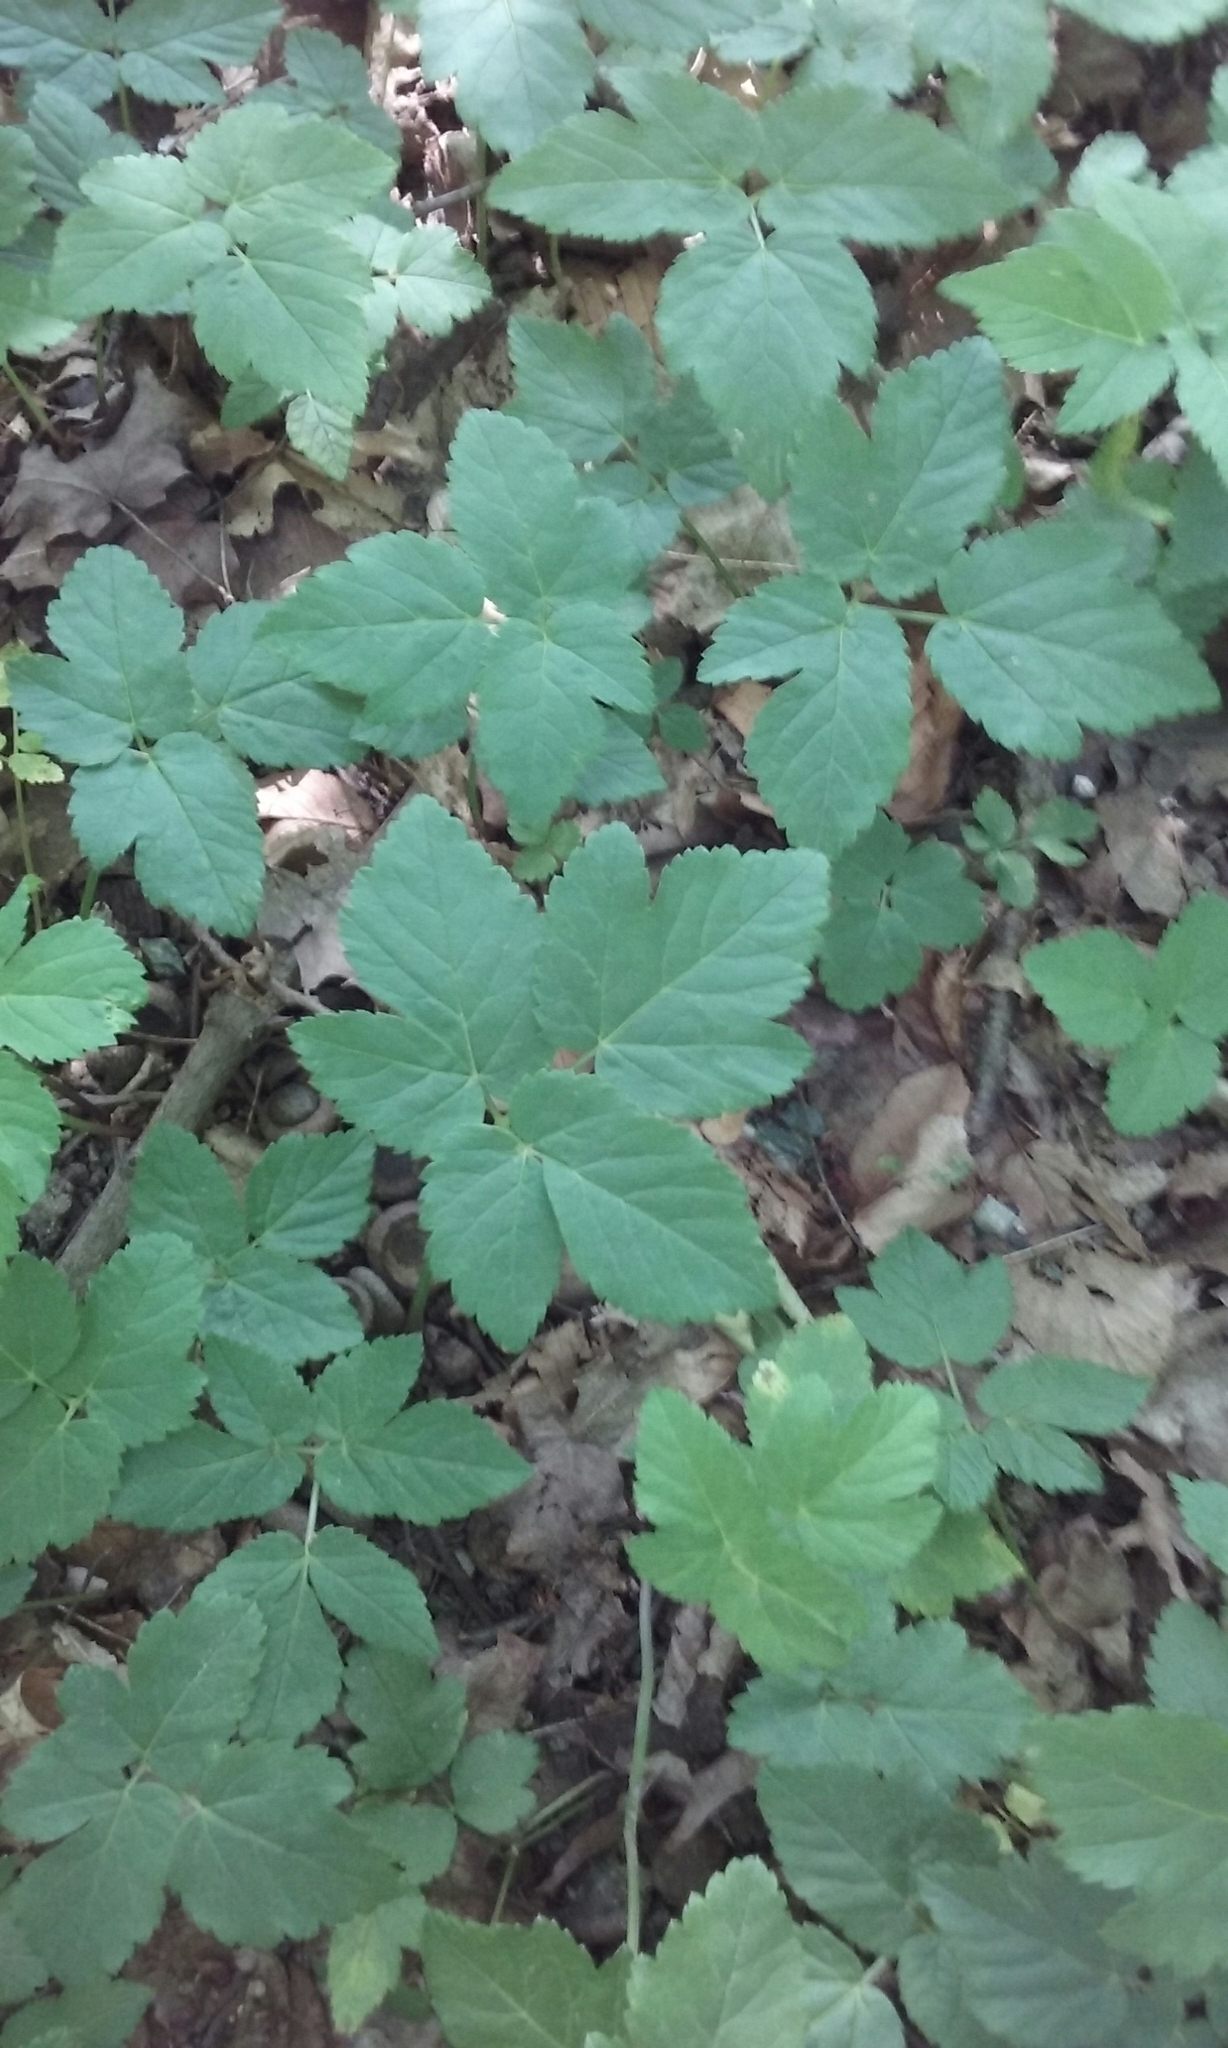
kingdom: Plantae
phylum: Tracheophyta
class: Magnoliopsida
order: Apiales
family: Apiaceae
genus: Aegopodium
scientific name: Aegopodium podagraria
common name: Ground-elder
